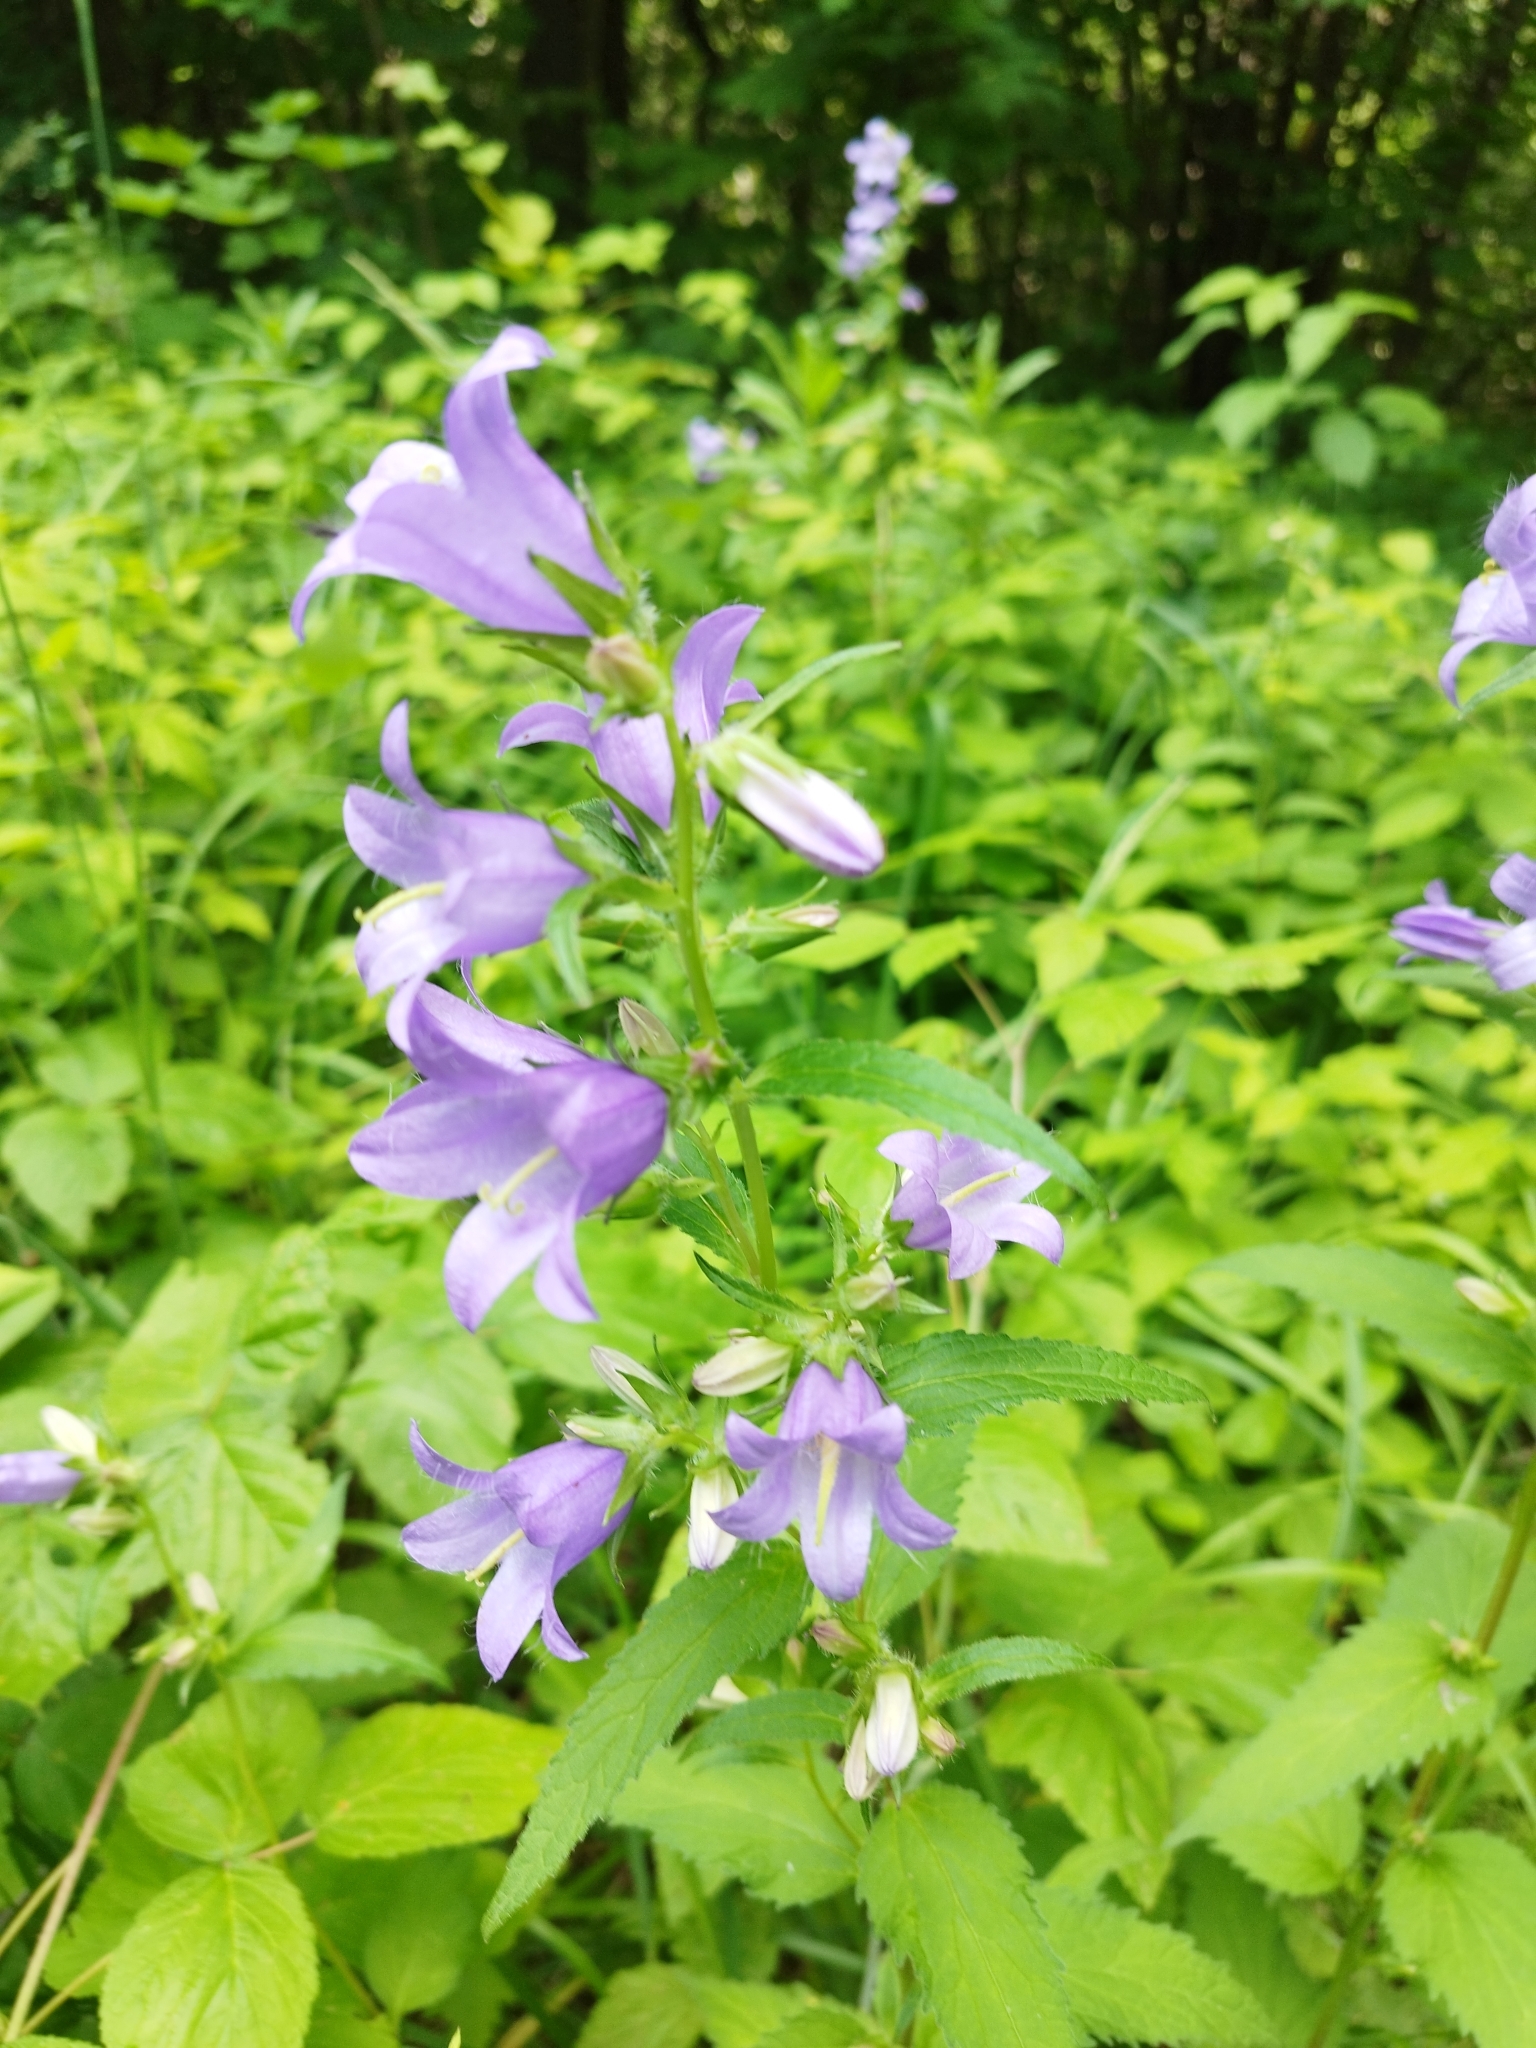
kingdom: Plantae
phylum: Tracheophyta
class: Magnoliopsida
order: Asterales
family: Campanulaceae
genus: Campanula
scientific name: Campanula trachelium
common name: Nettle-leaved bellflower
